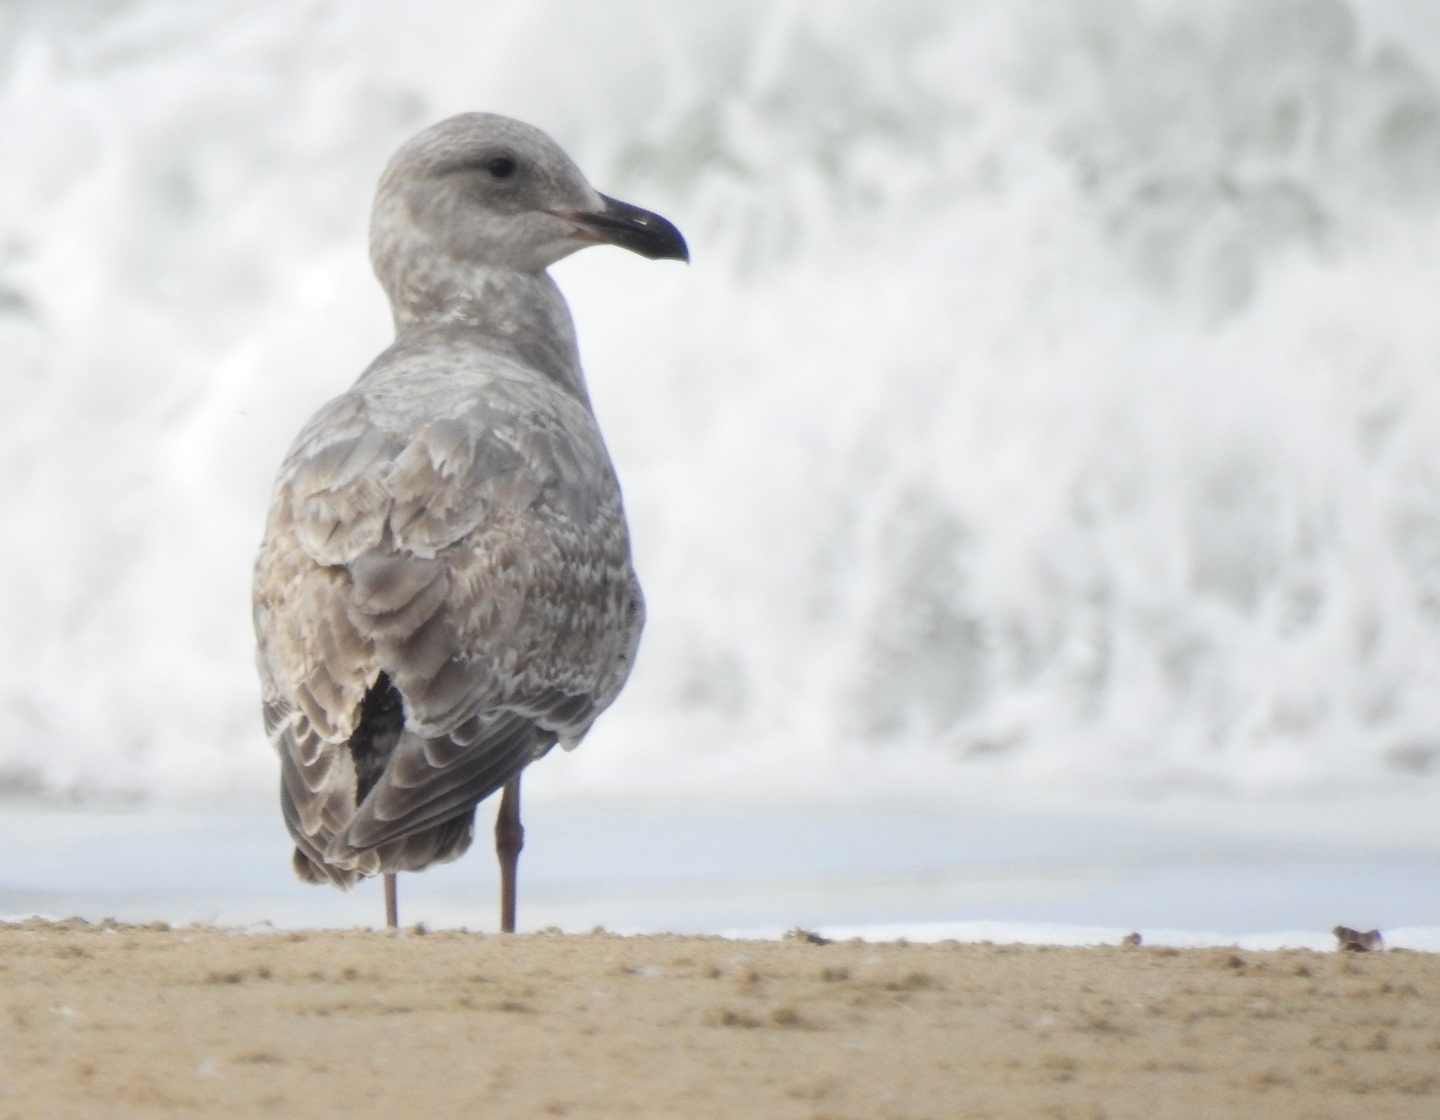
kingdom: Animalia
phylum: Chordata
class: Aves
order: Charadriiformes
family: Laridae
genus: Larus
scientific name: Larus
